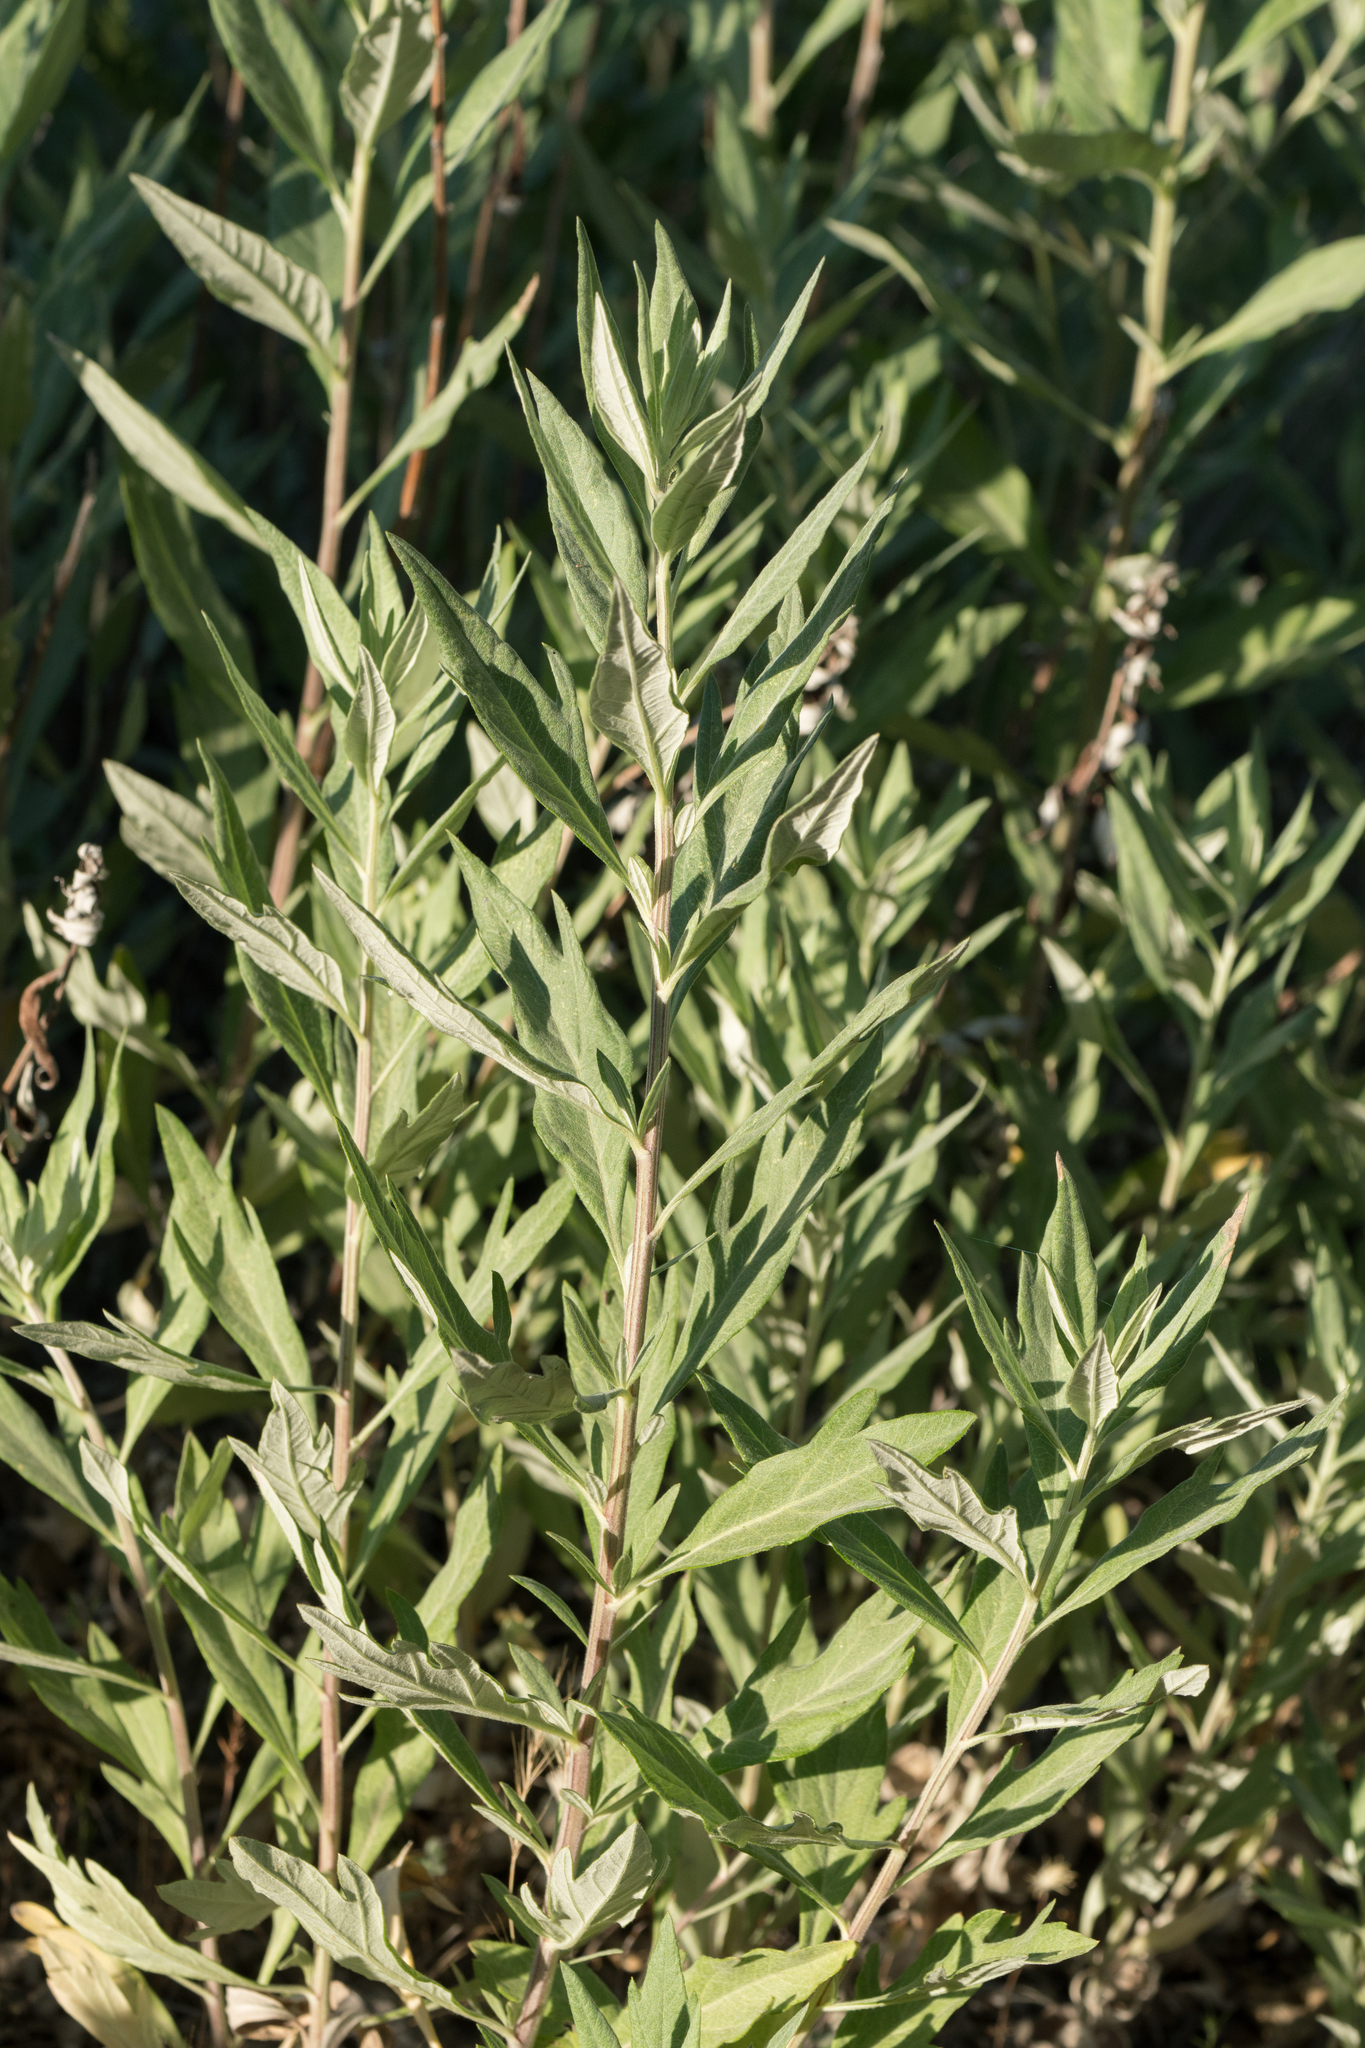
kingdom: Plantae
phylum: Tracheophyta
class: Magnoliopsida
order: Asterales
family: Asteraceae
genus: Artemisia
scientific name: Artemisia douglasiana
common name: Northwest mugwort
